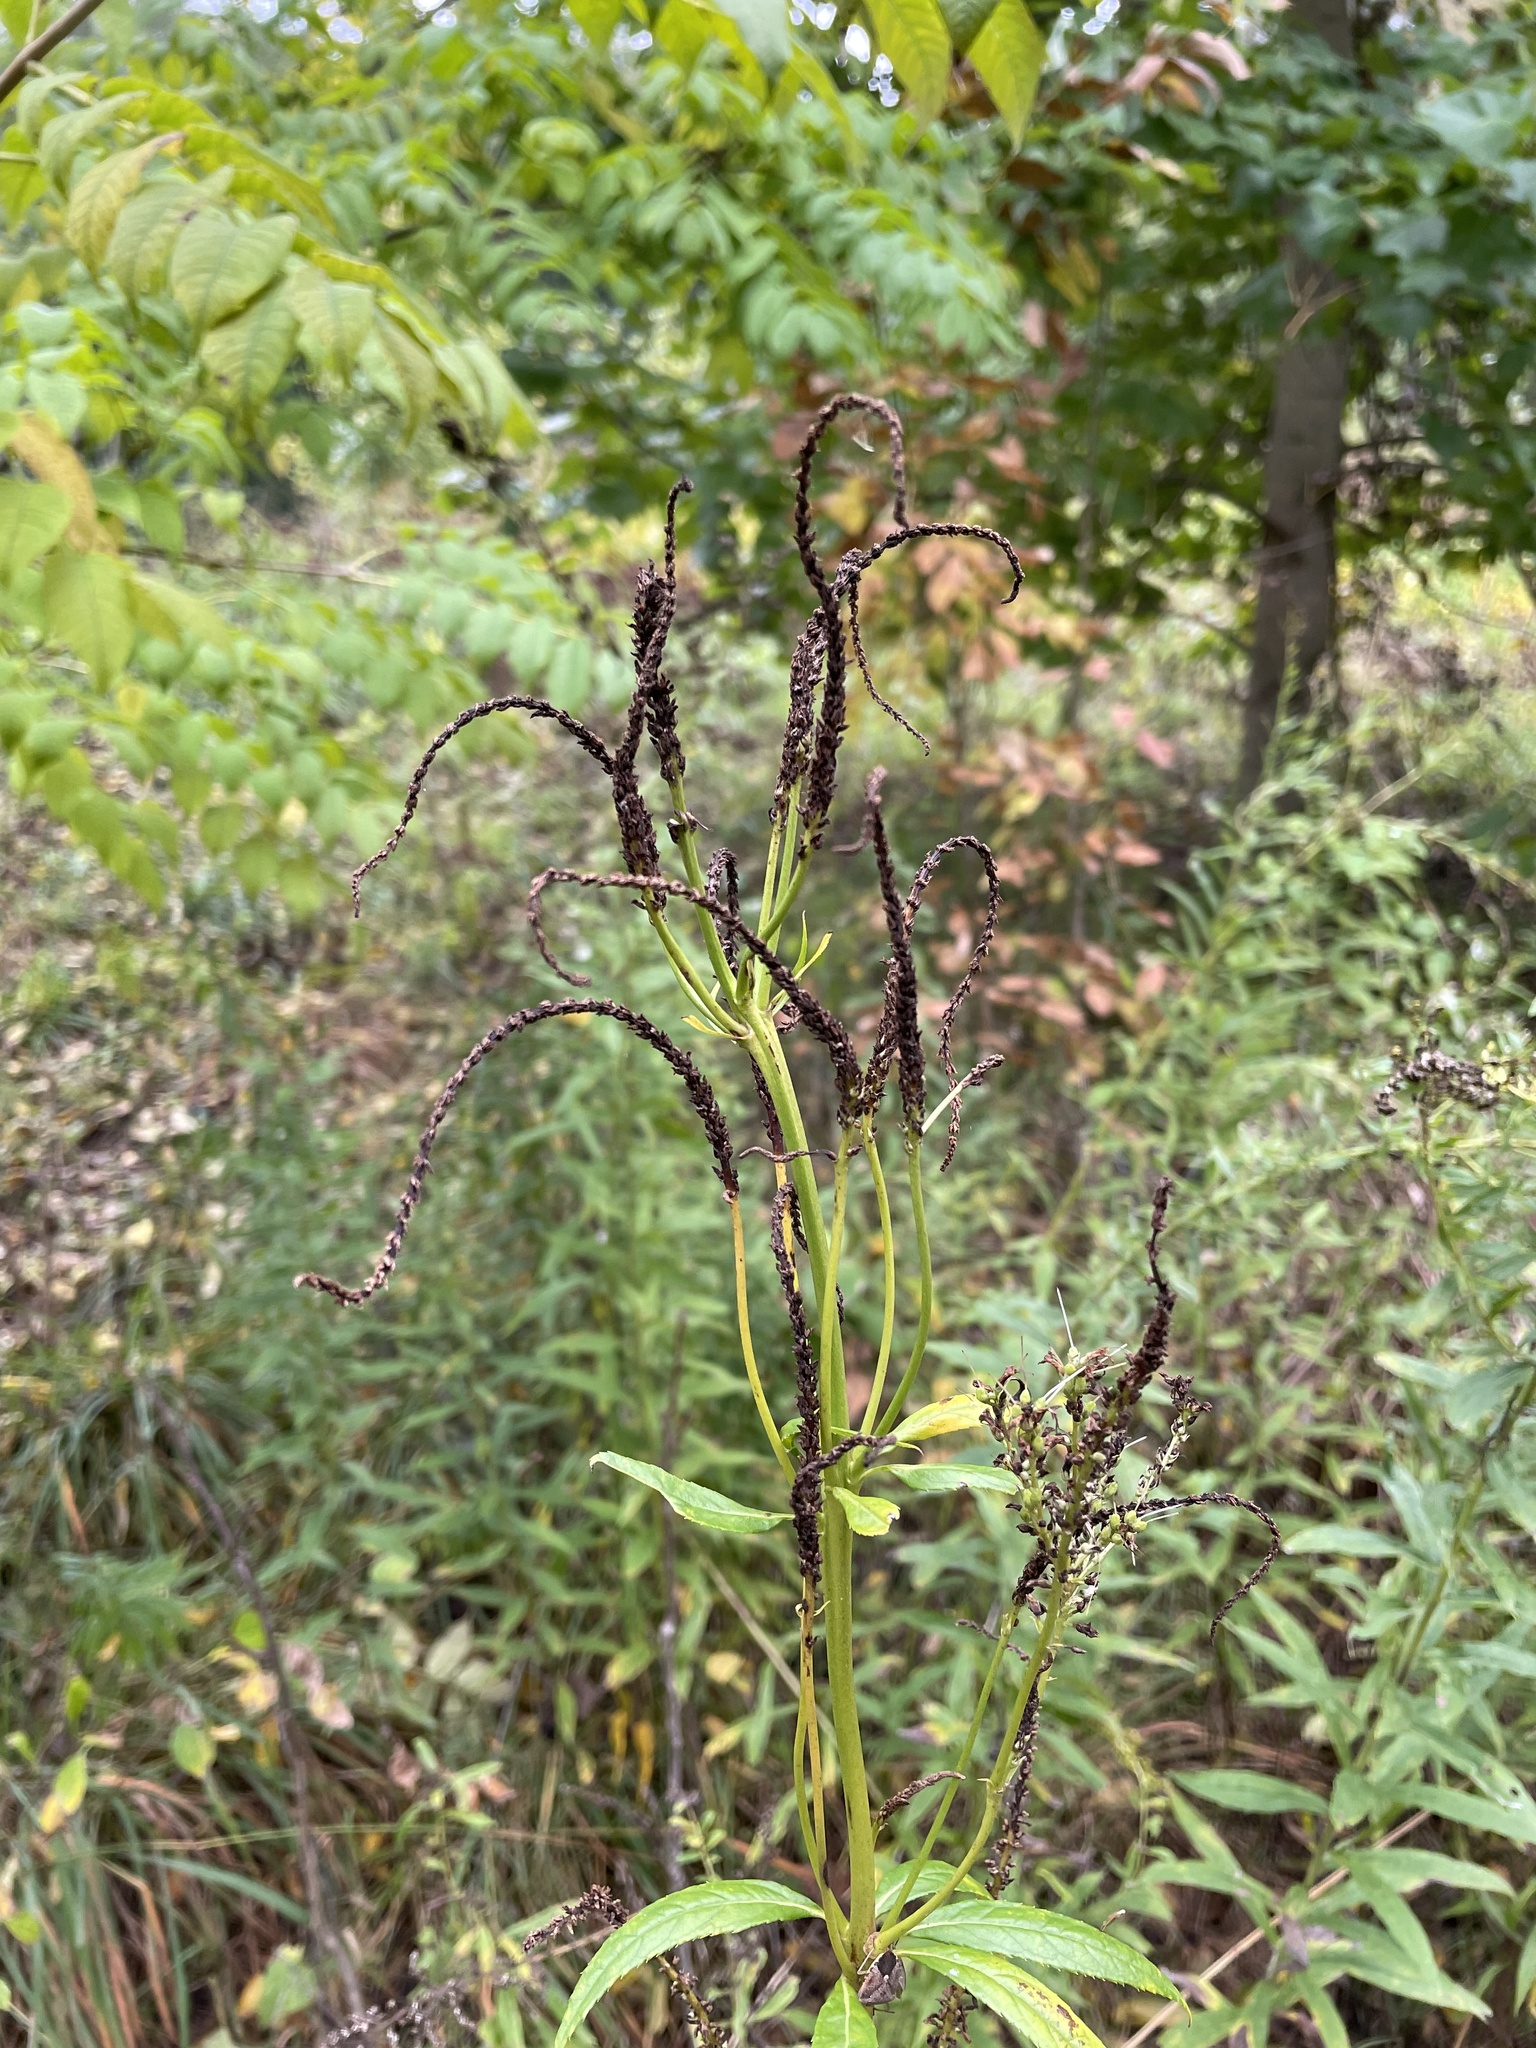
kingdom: Plantae
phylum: Tracheophyta
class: Magnoliopsida
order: Lamiales
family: Plantaginaceae
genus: Veronicastrum
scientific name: Veronicastrum virginicum
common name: Blackroot
